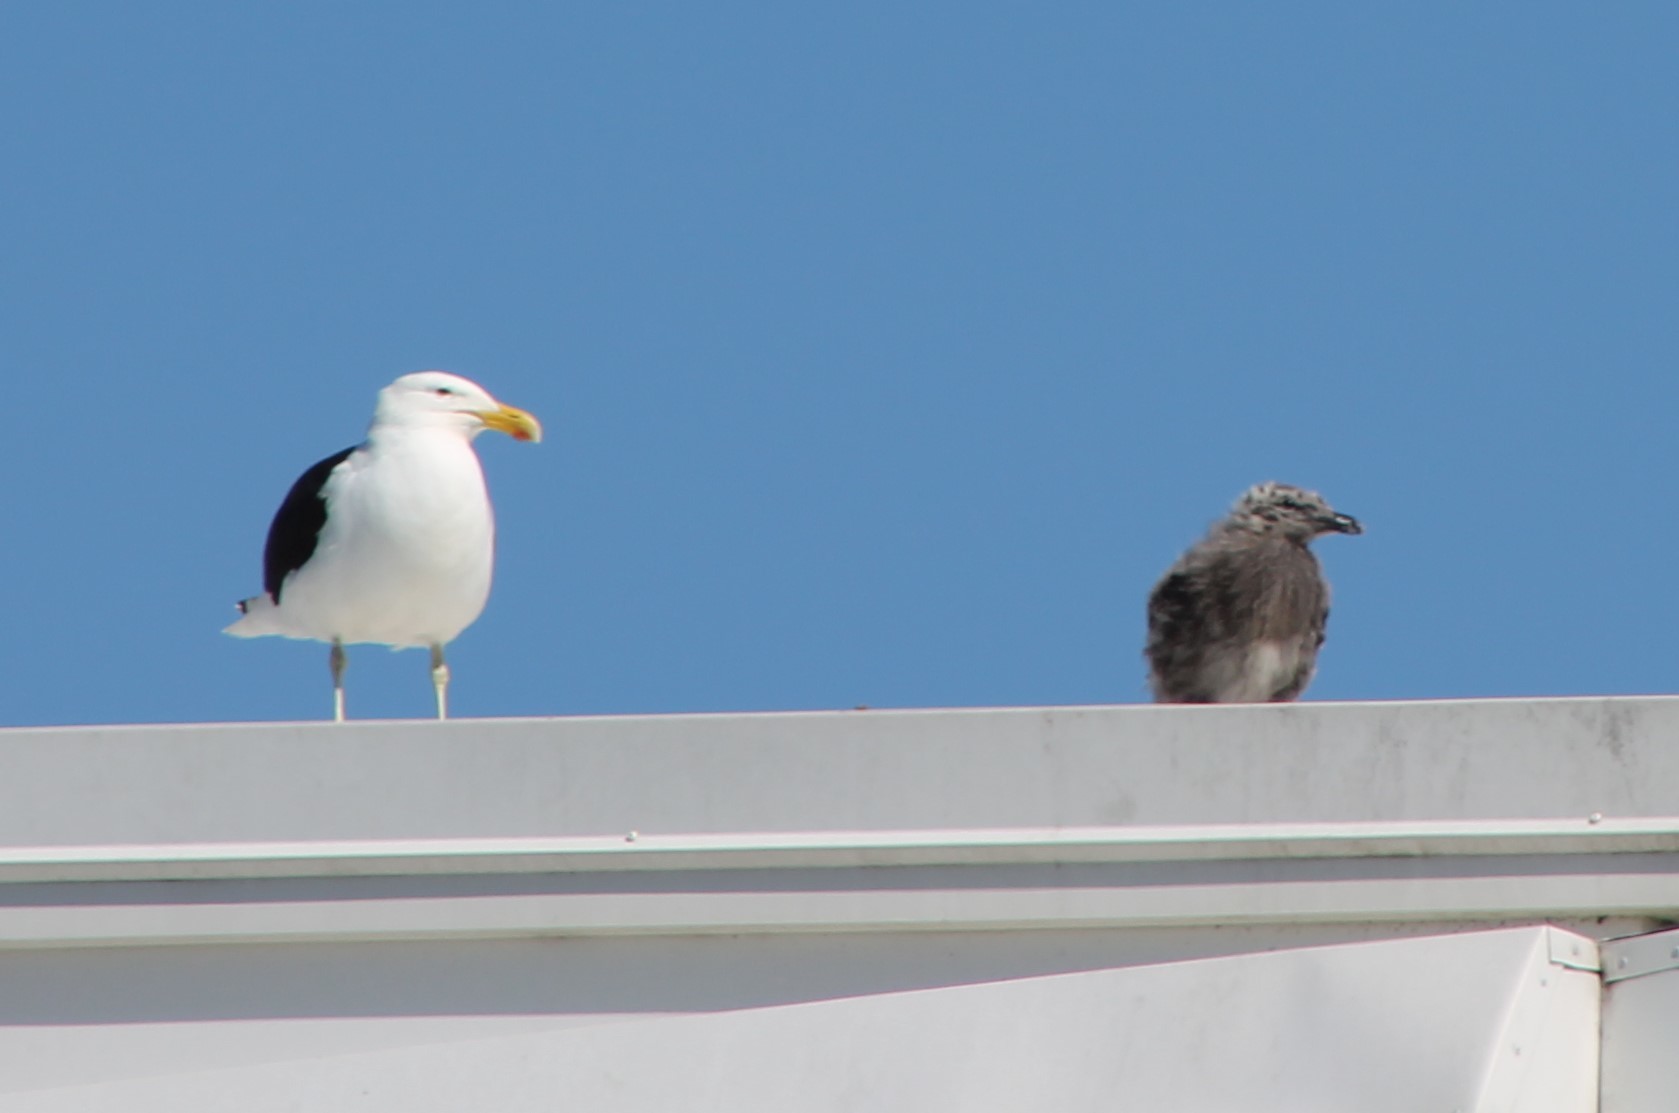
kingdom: Animalia
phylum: Chordata
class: Aves
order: Charadriiformes
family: Laridae
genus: Larus
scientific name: Larus dominicanus
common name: Kelp gull
